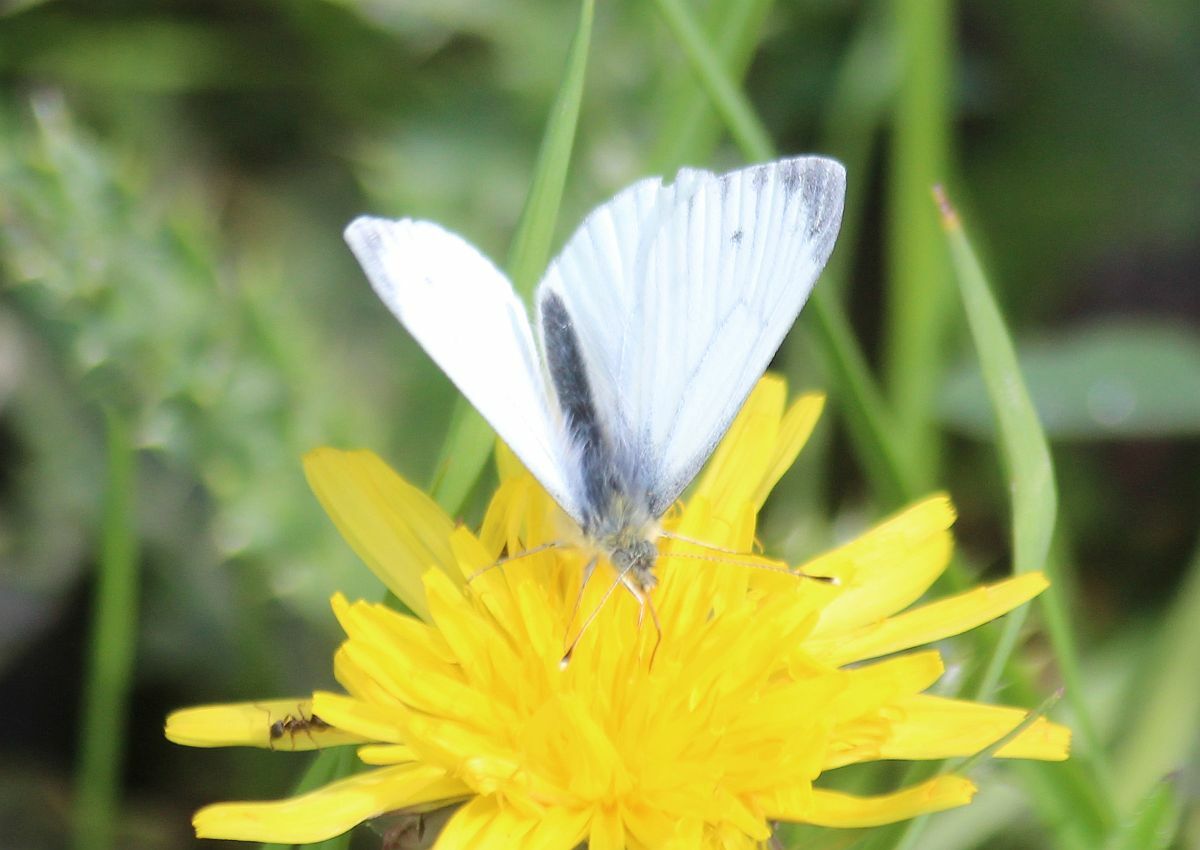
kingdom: Animalia
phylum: Arthropoda
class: Insecta
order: Lepidoptera
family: Pieridae
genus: Pieris
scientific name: Pieris napi
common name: Green-veined white
